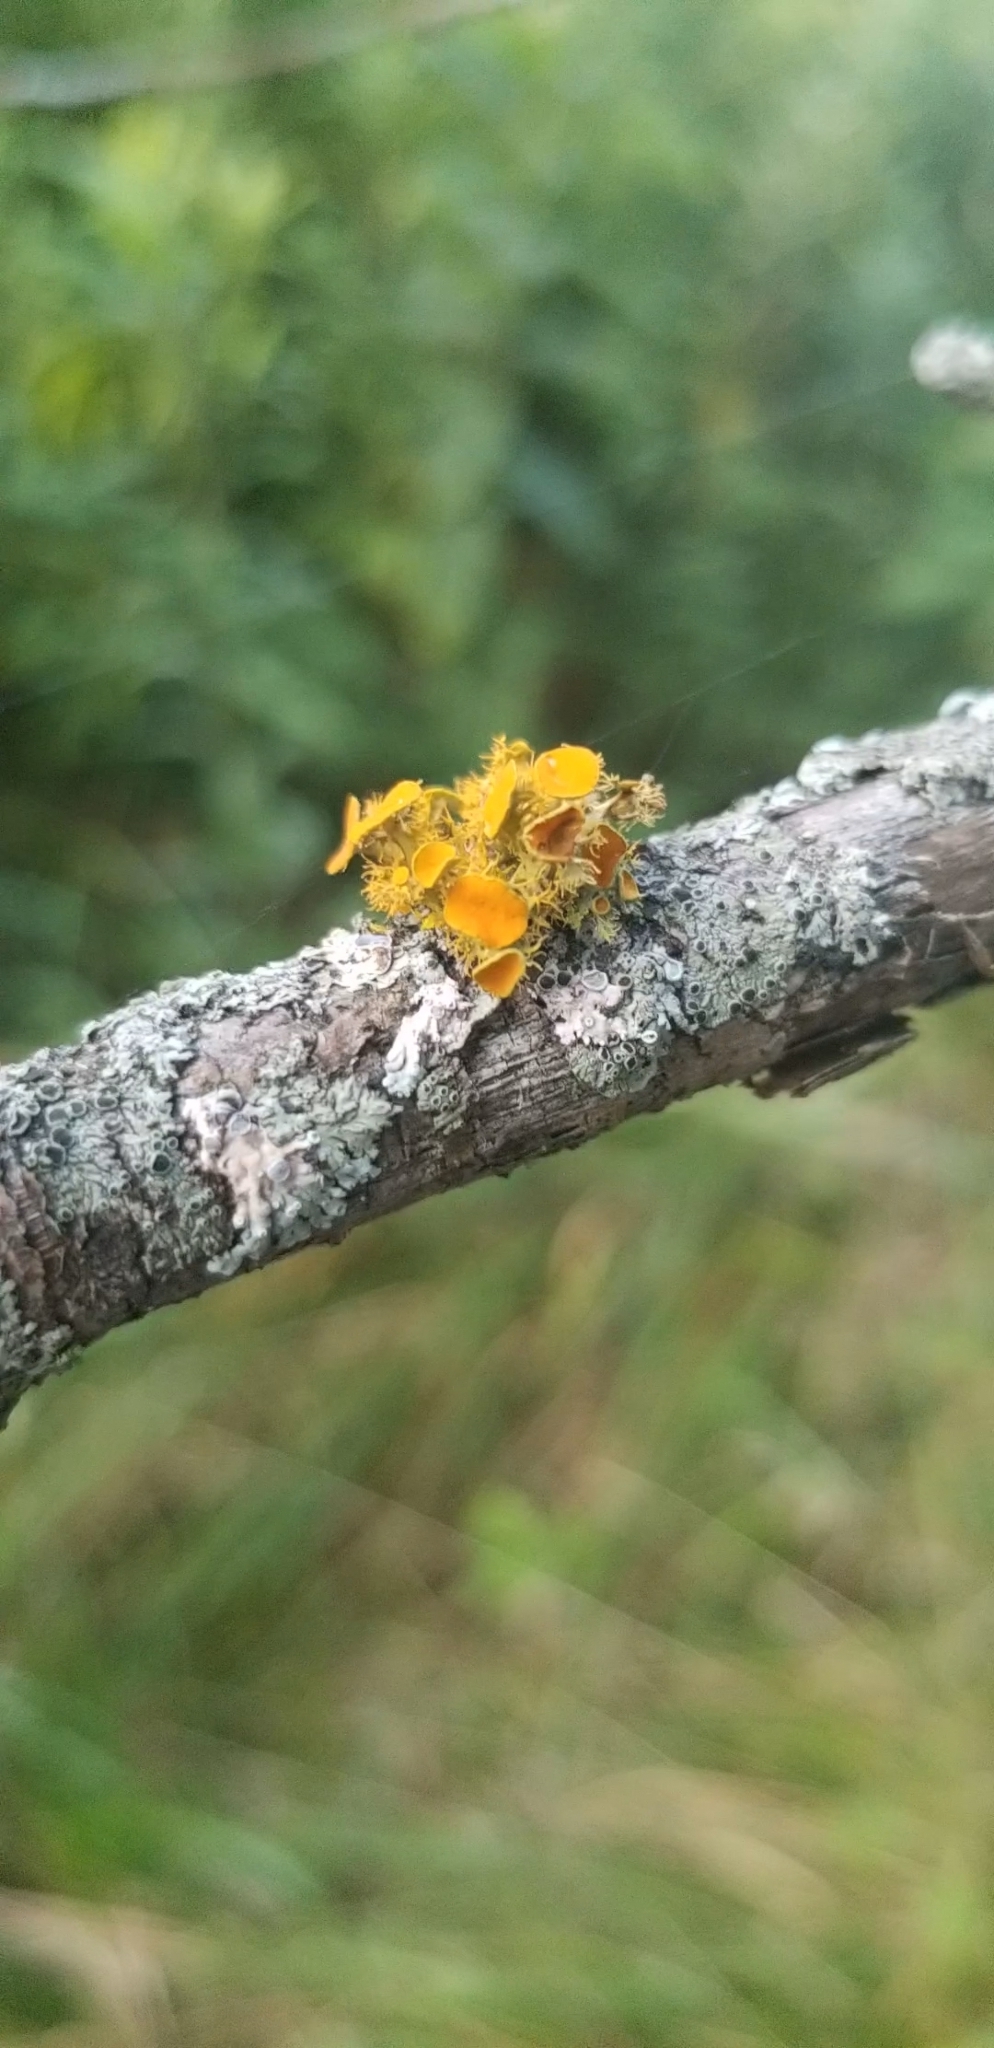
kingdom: Fungi
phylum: Ascomycota
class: Lecanoromycetes
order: Teloschistales
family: Teloschistaceae
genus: Niorma
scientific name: Niorma chrysophthalma
